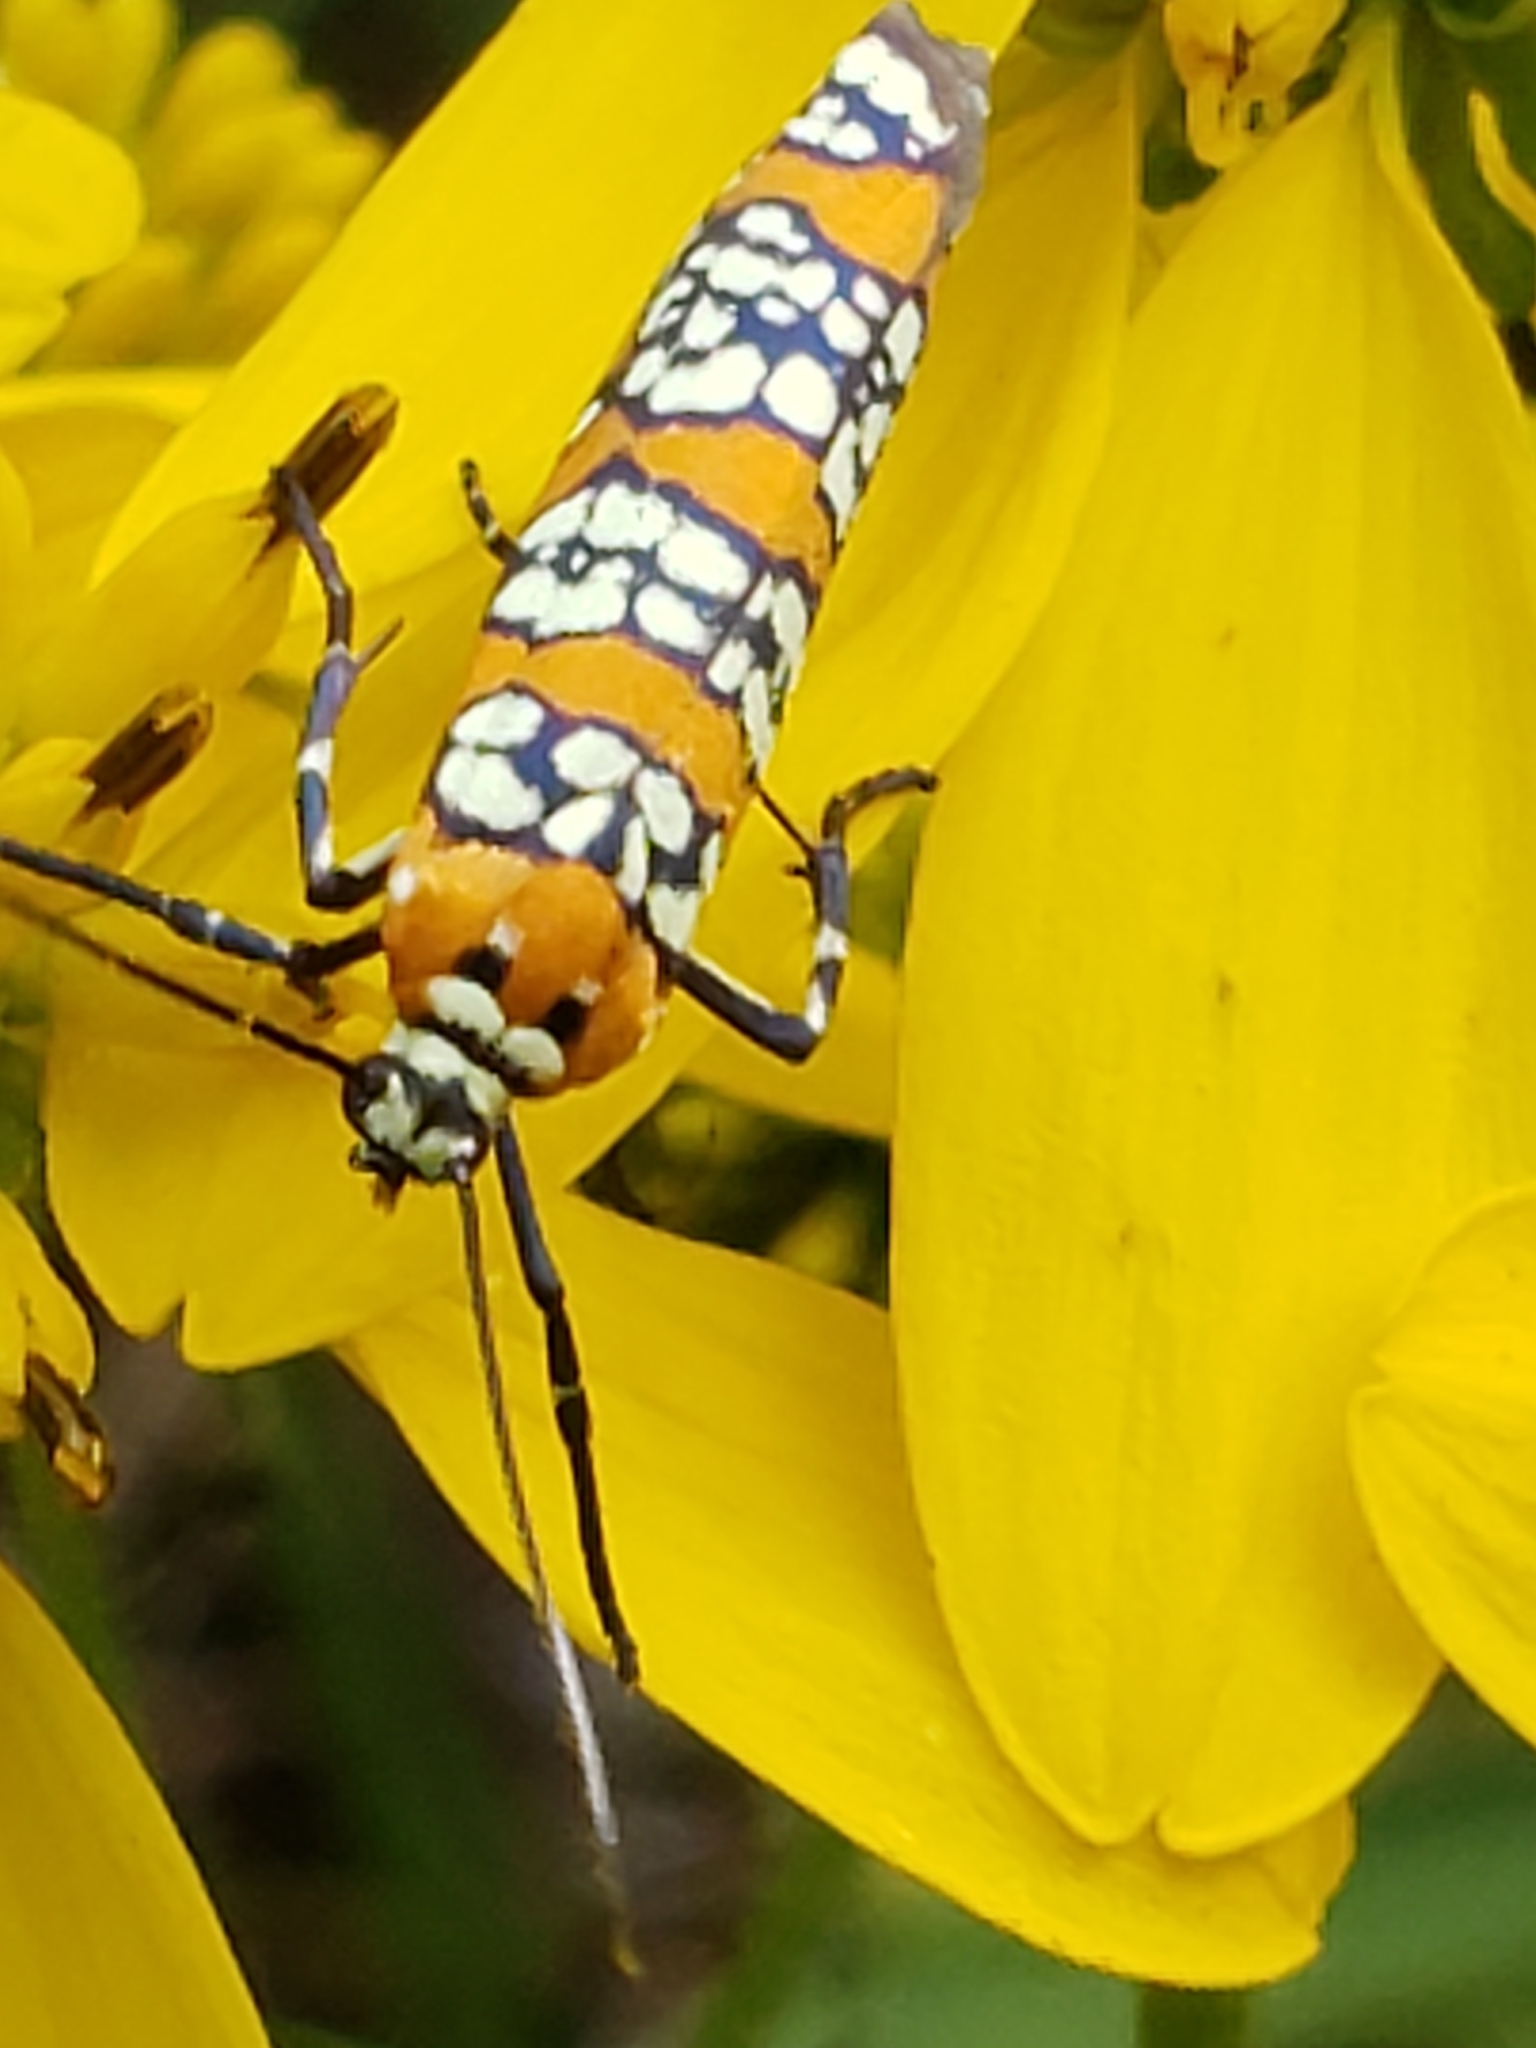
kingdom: Animalia
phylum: Arthropoda
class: Insecta
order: Lepidoptera
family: Attevidae
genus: Atteva
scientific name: Atteva punctella
